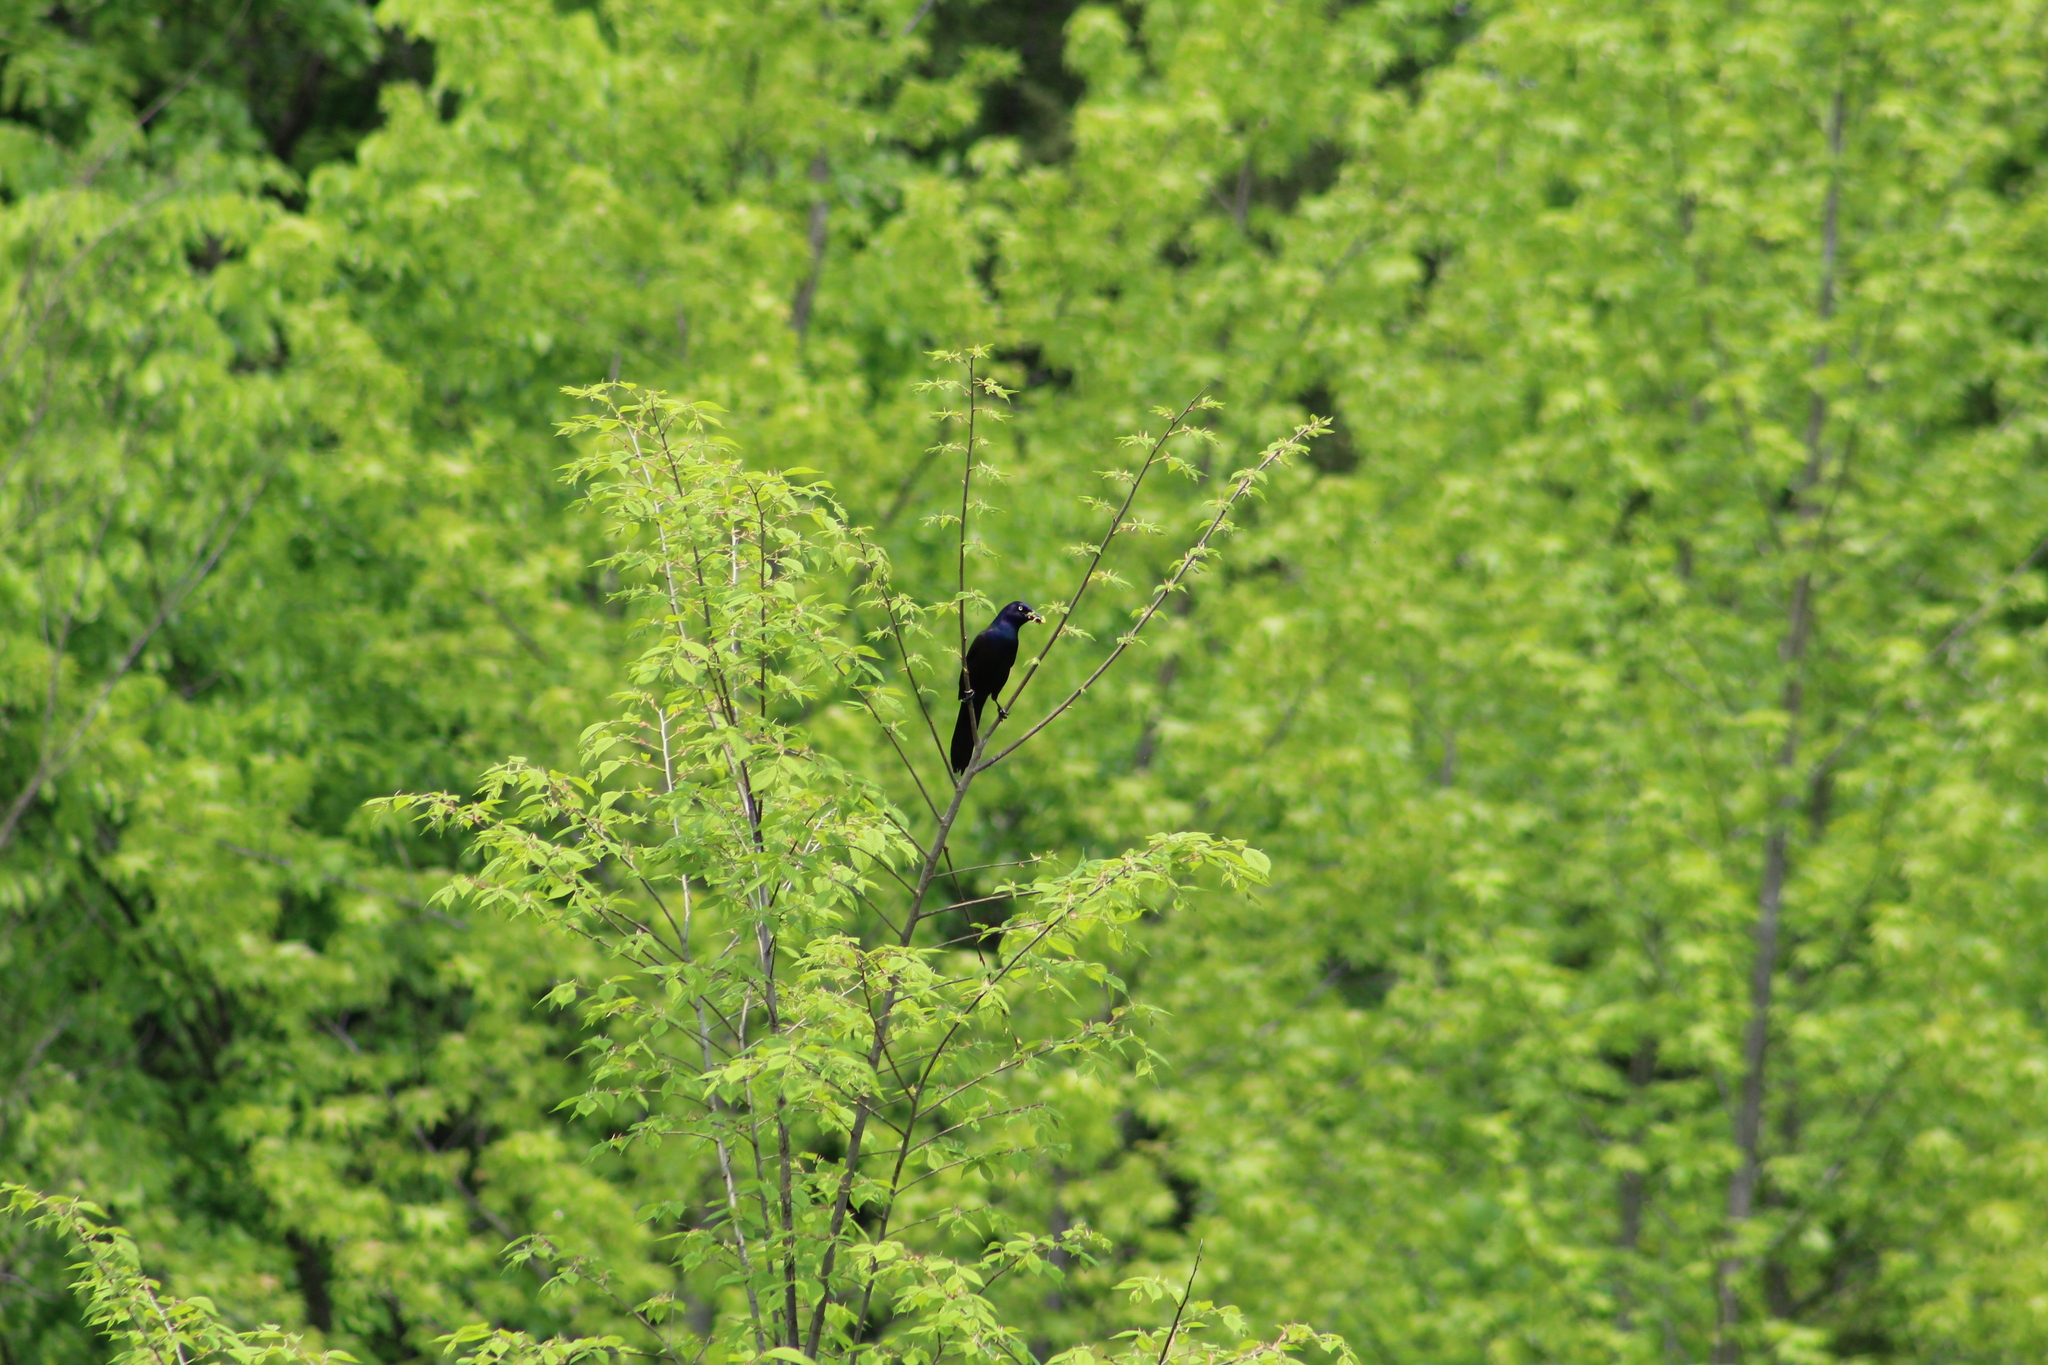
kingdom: Animalia
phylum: Chordata
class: Aves
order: Passeriformes
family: Icteridae
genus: Quiscalus
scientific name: Quiscalus quiscula
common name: Common grackle
